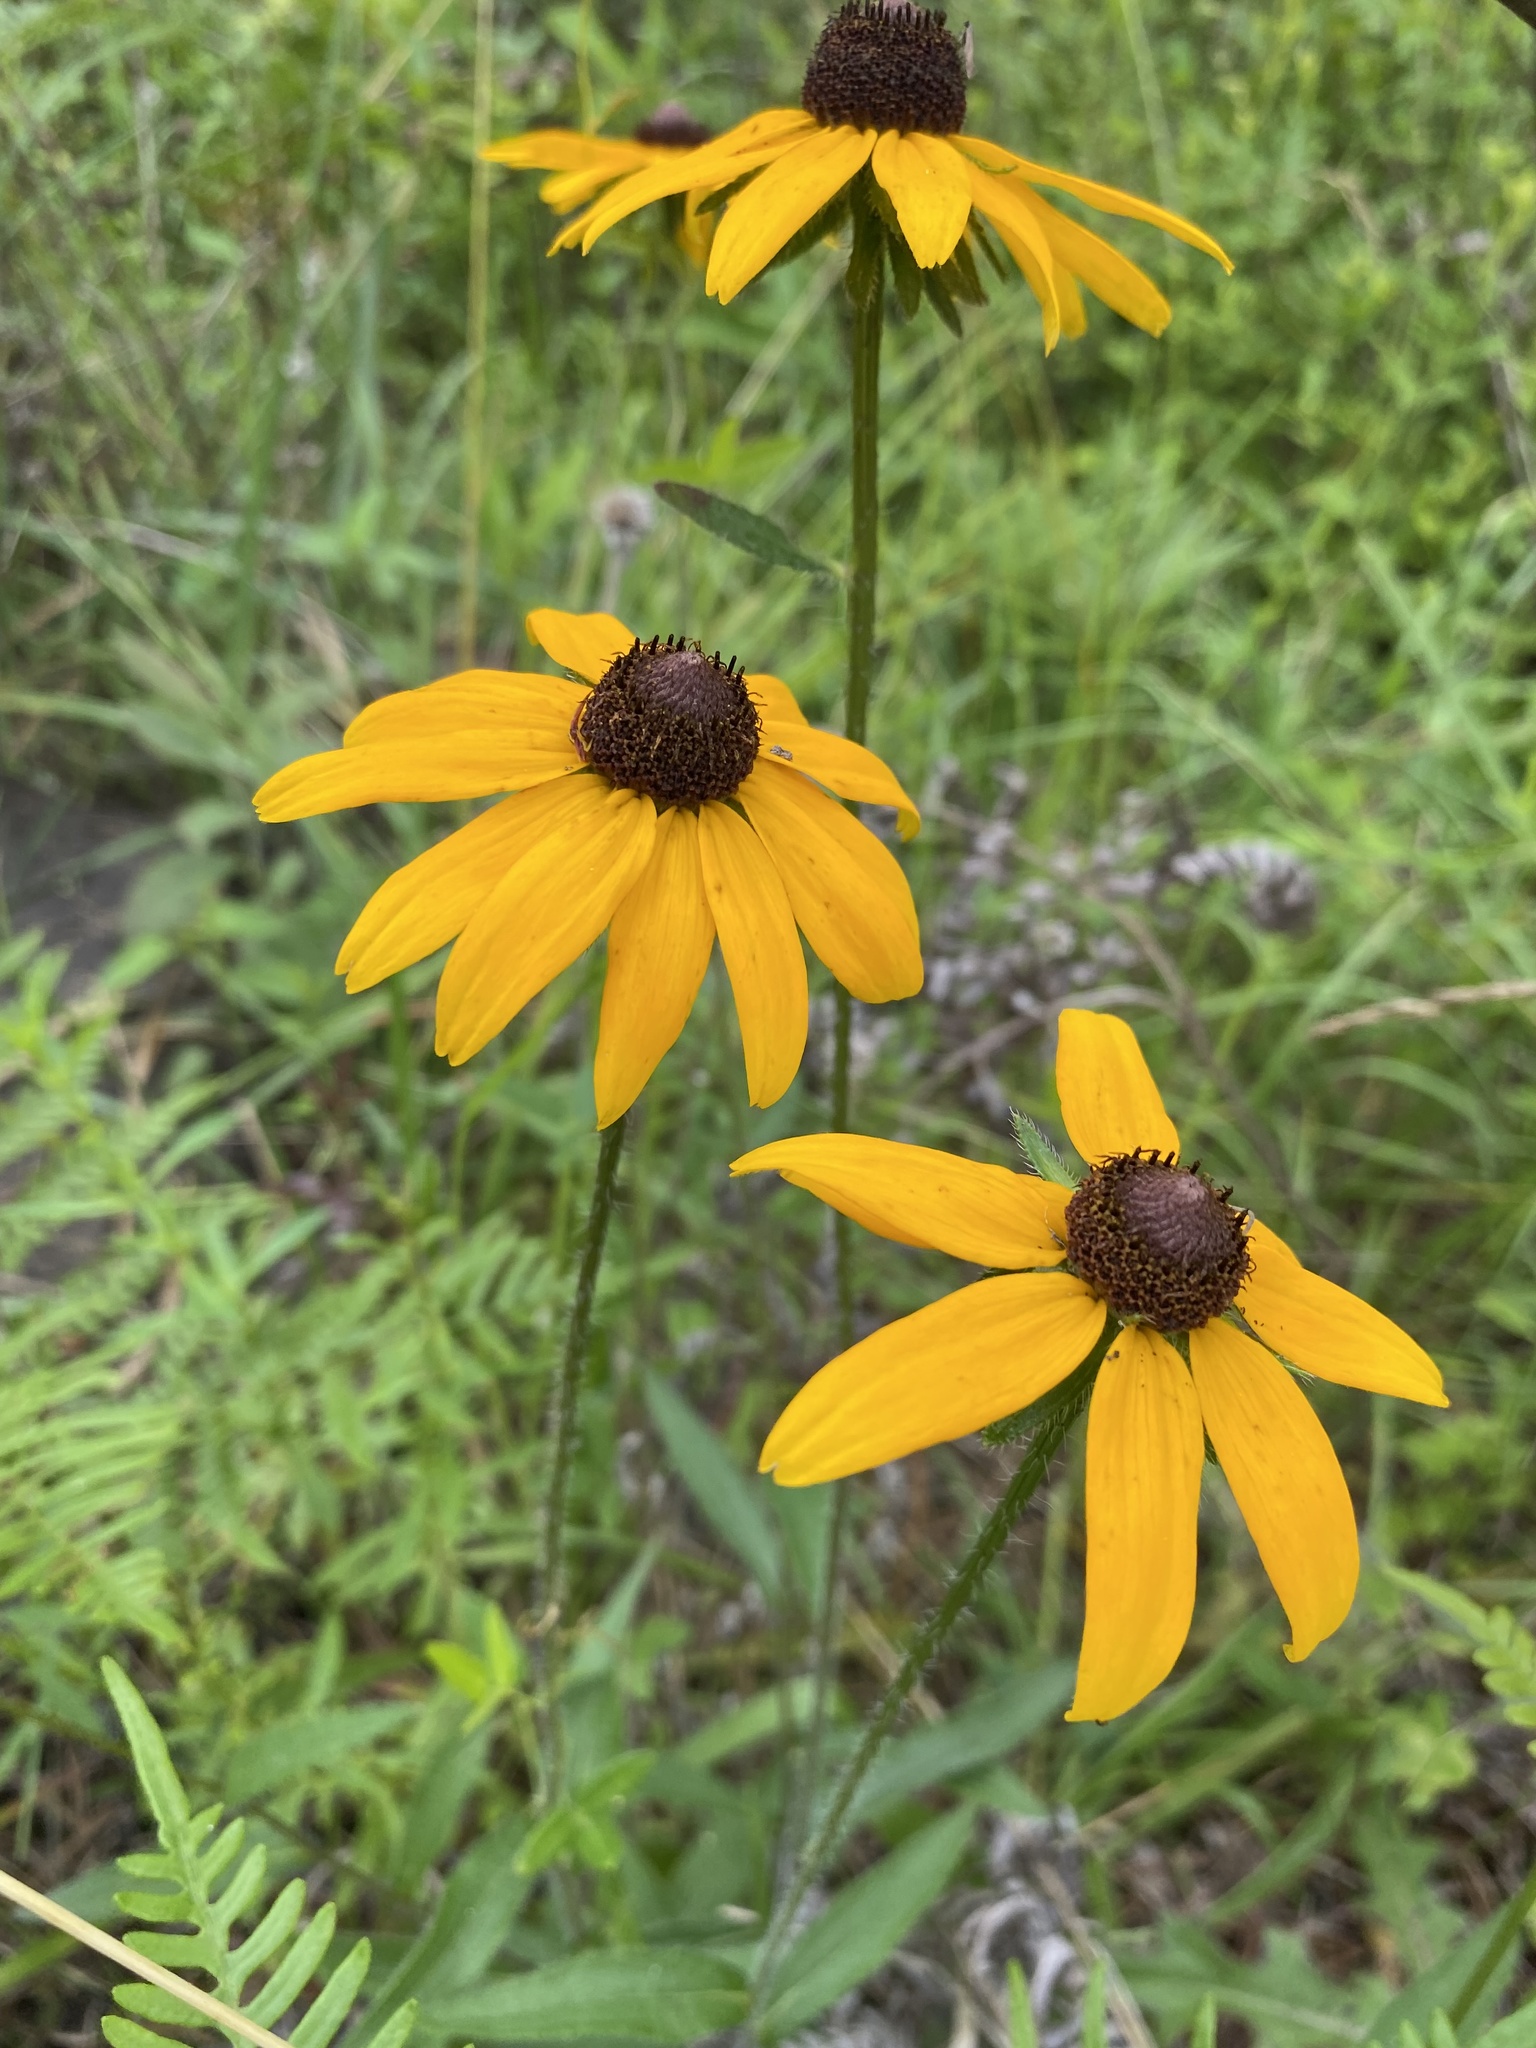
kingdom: Plantae
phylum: Tracheophyta
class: Magnoliopsida
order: Asterales
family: Asteraceae
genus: Rudbeckia
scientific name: Rudbeckia hirta
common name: Black-eyed-susan
